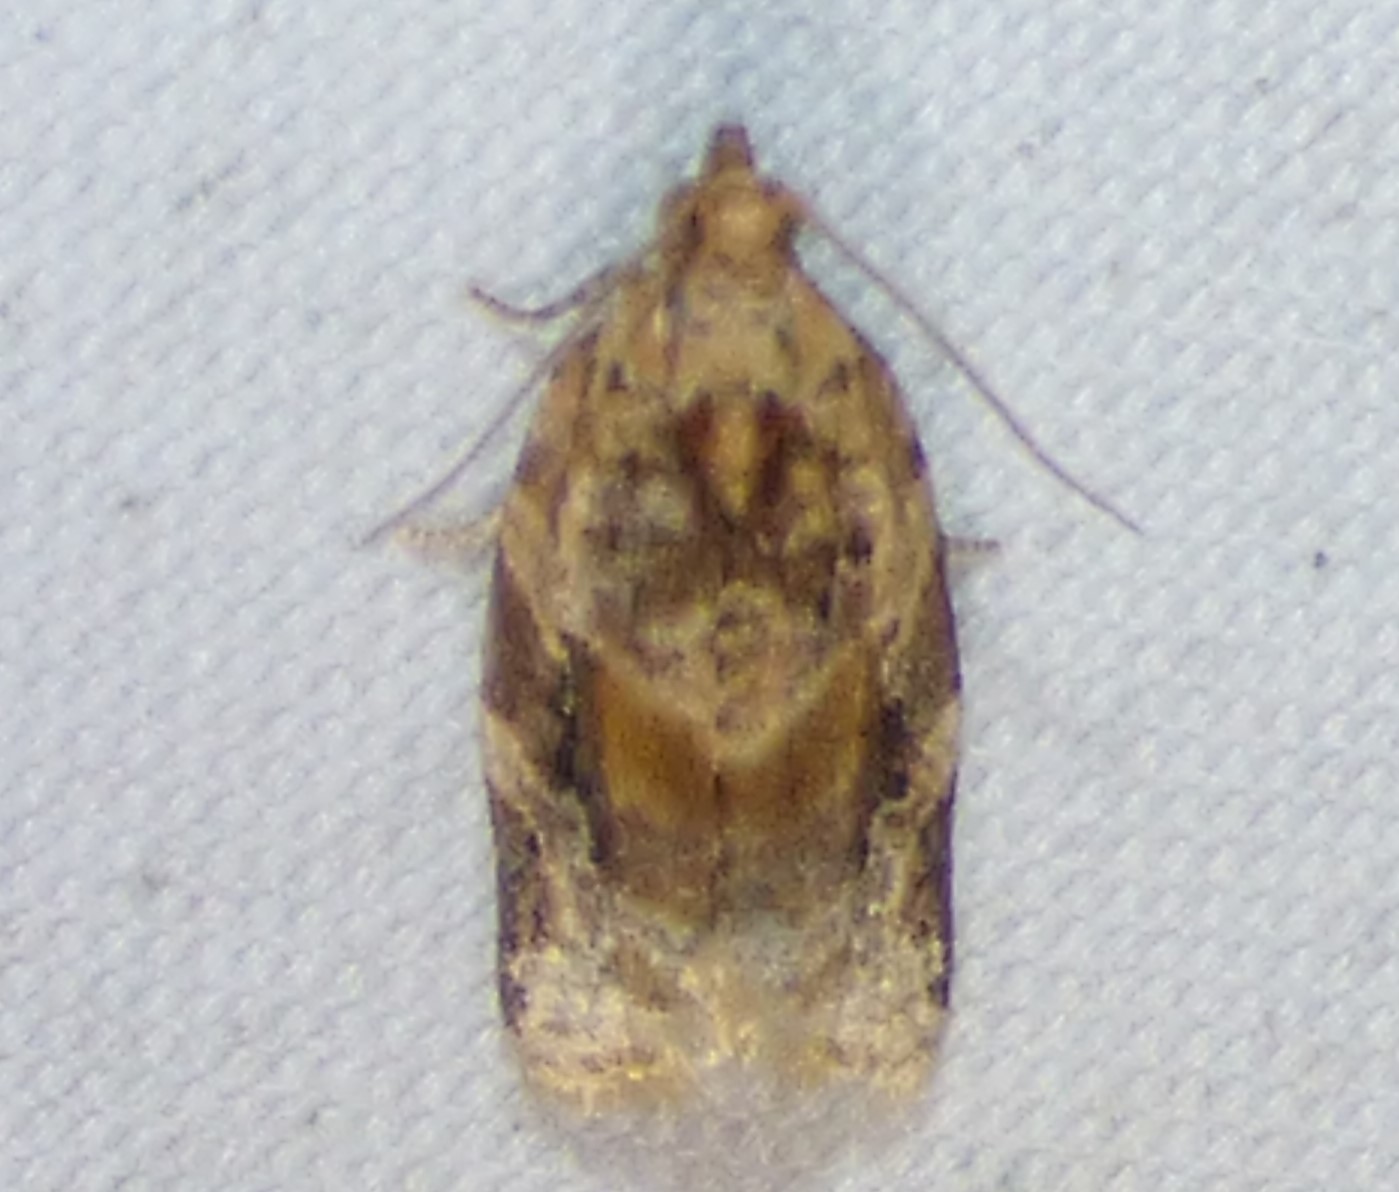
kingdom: Animalia
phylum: Arthropoda
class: Insecta
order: Lepidoptera
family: Tortricidae
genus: Argyrotaenia
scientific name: Argyrotaenia velutinana
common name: Red-banded leafroller moth
